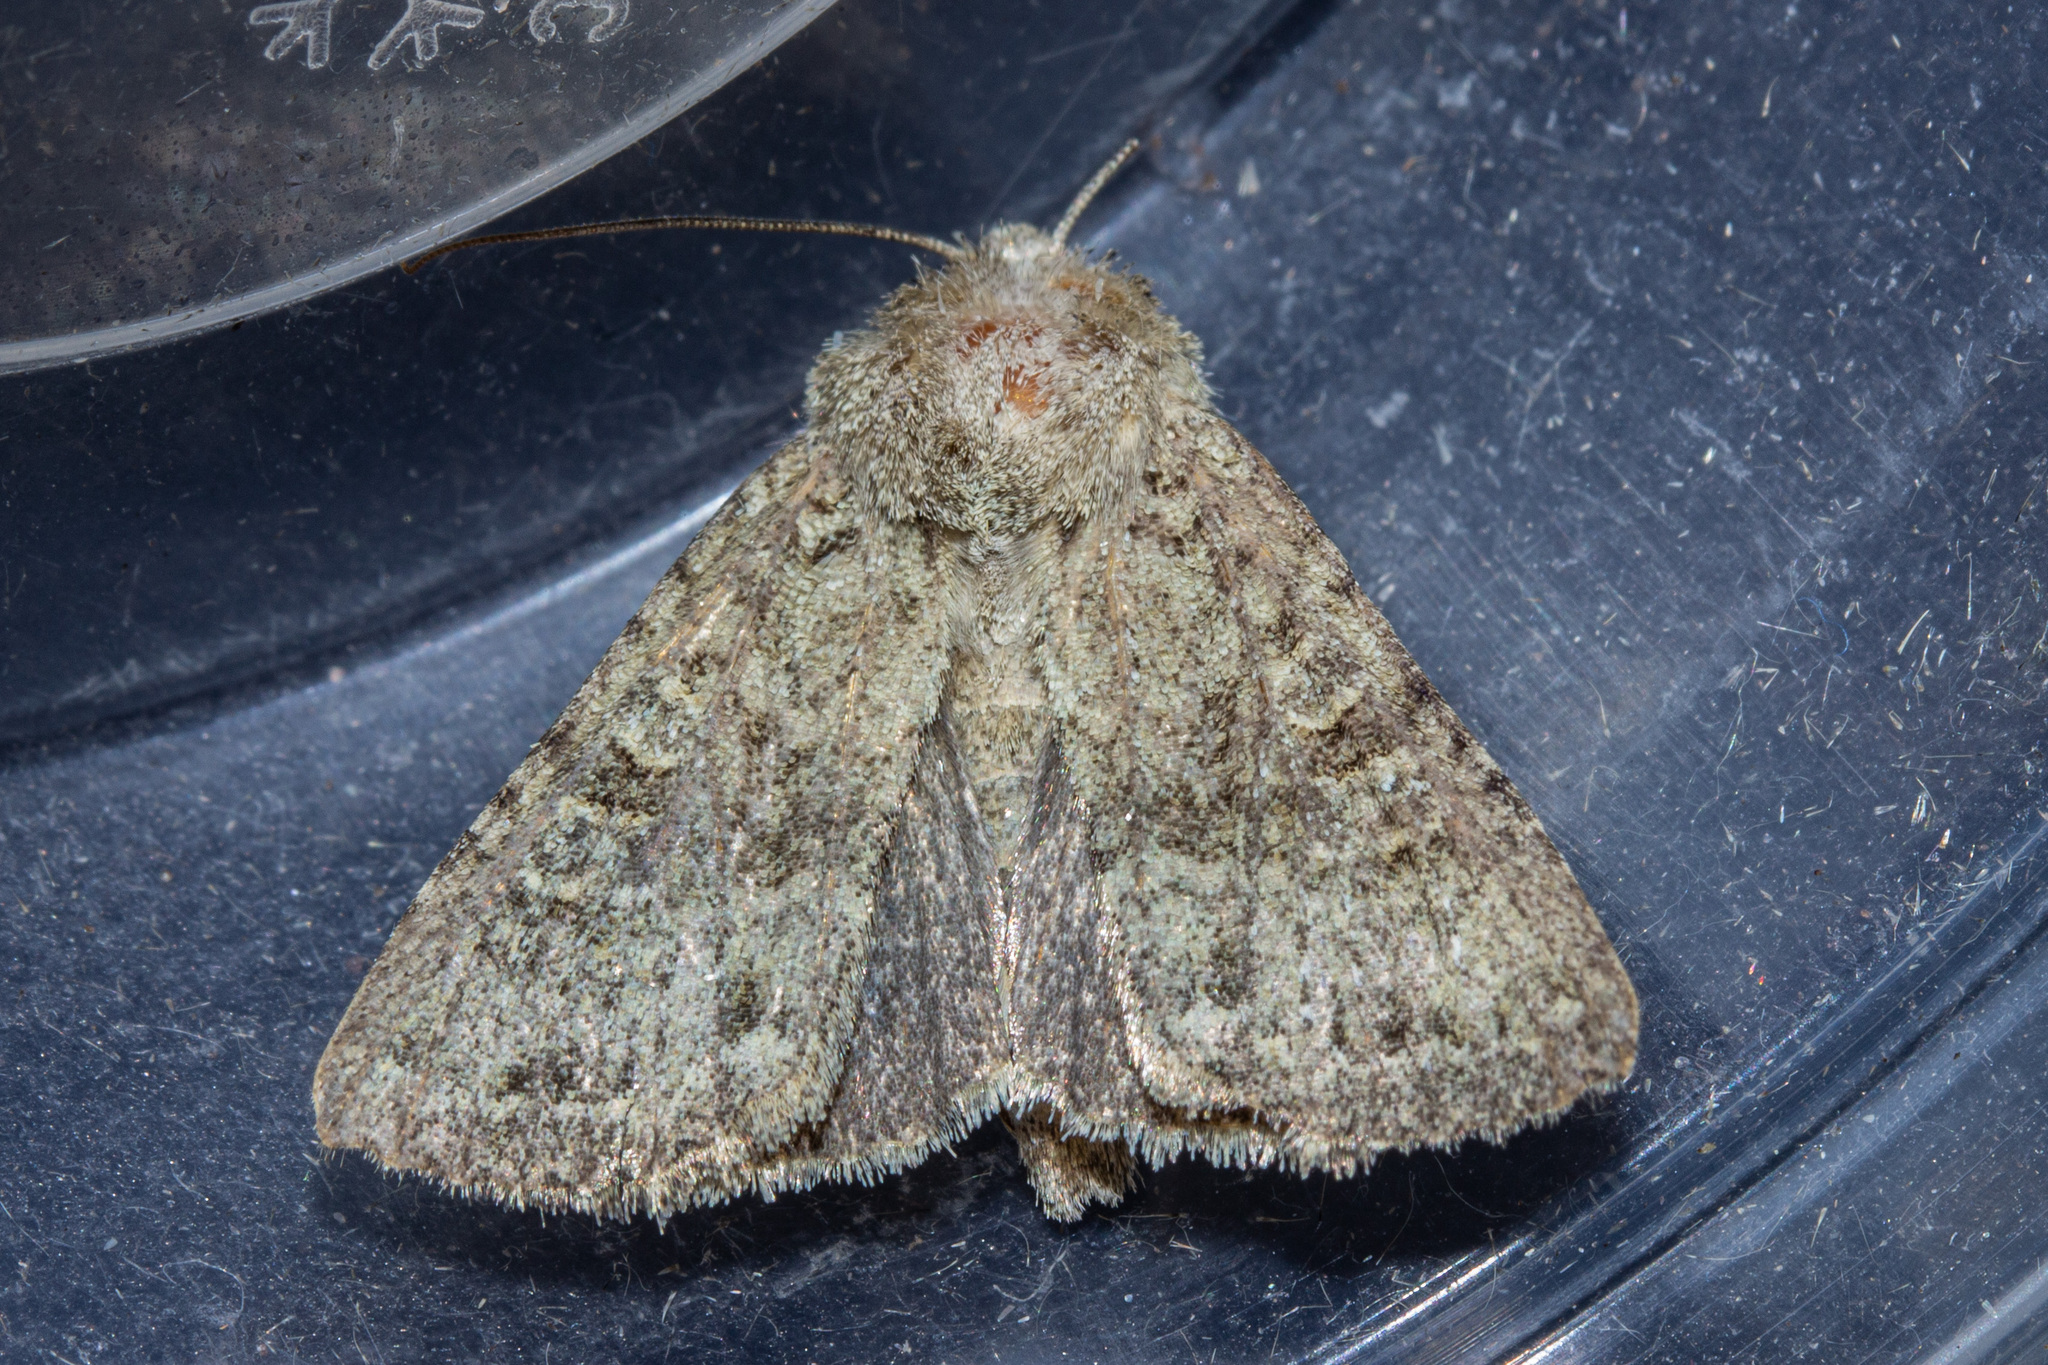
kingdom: Animalia
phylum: Arthropoda
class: Insecta
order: Lepidoptera
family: Noctuidae
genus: Ichneutica
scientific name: Ichneutica barbara
